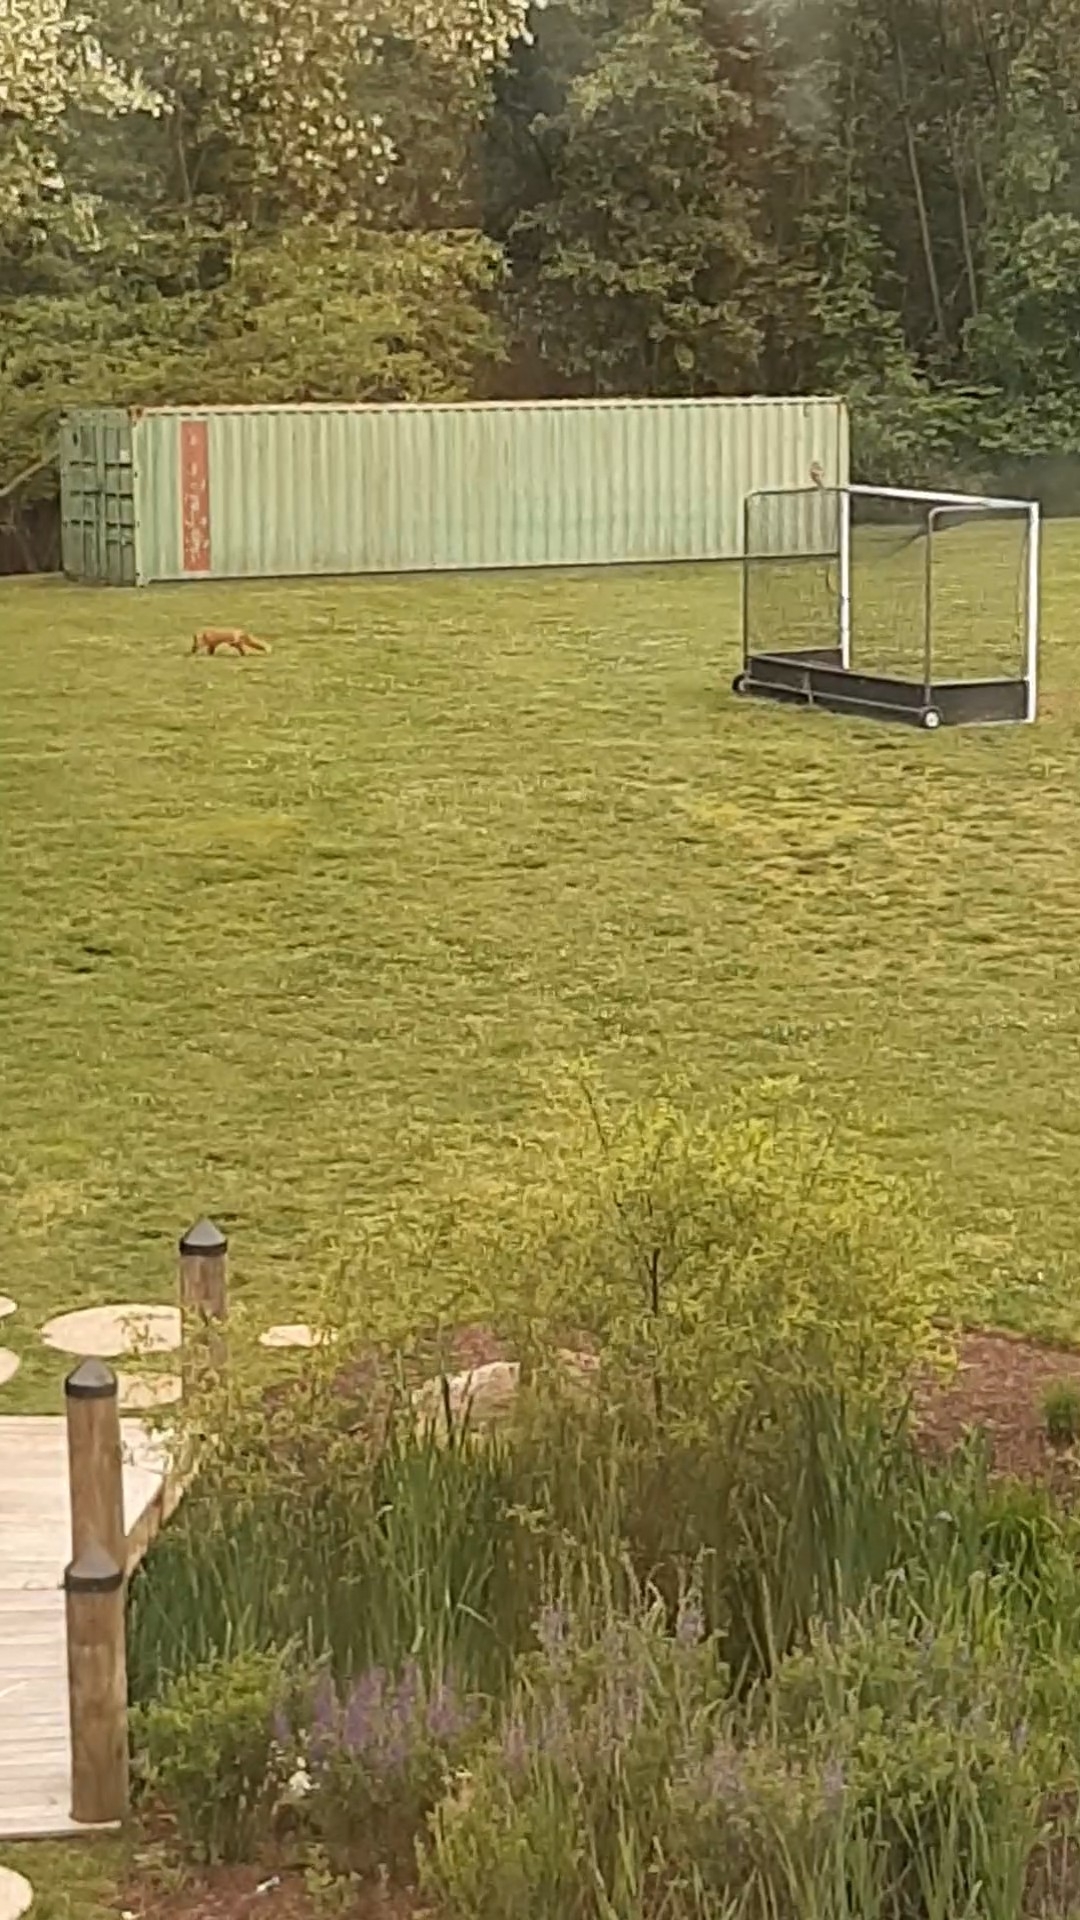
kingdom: Animalia
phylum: Chordata
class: Mammalia
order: Carnivora
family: Canidae
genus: Vulpes
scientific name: Vulpes vulpes
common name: Red fox
